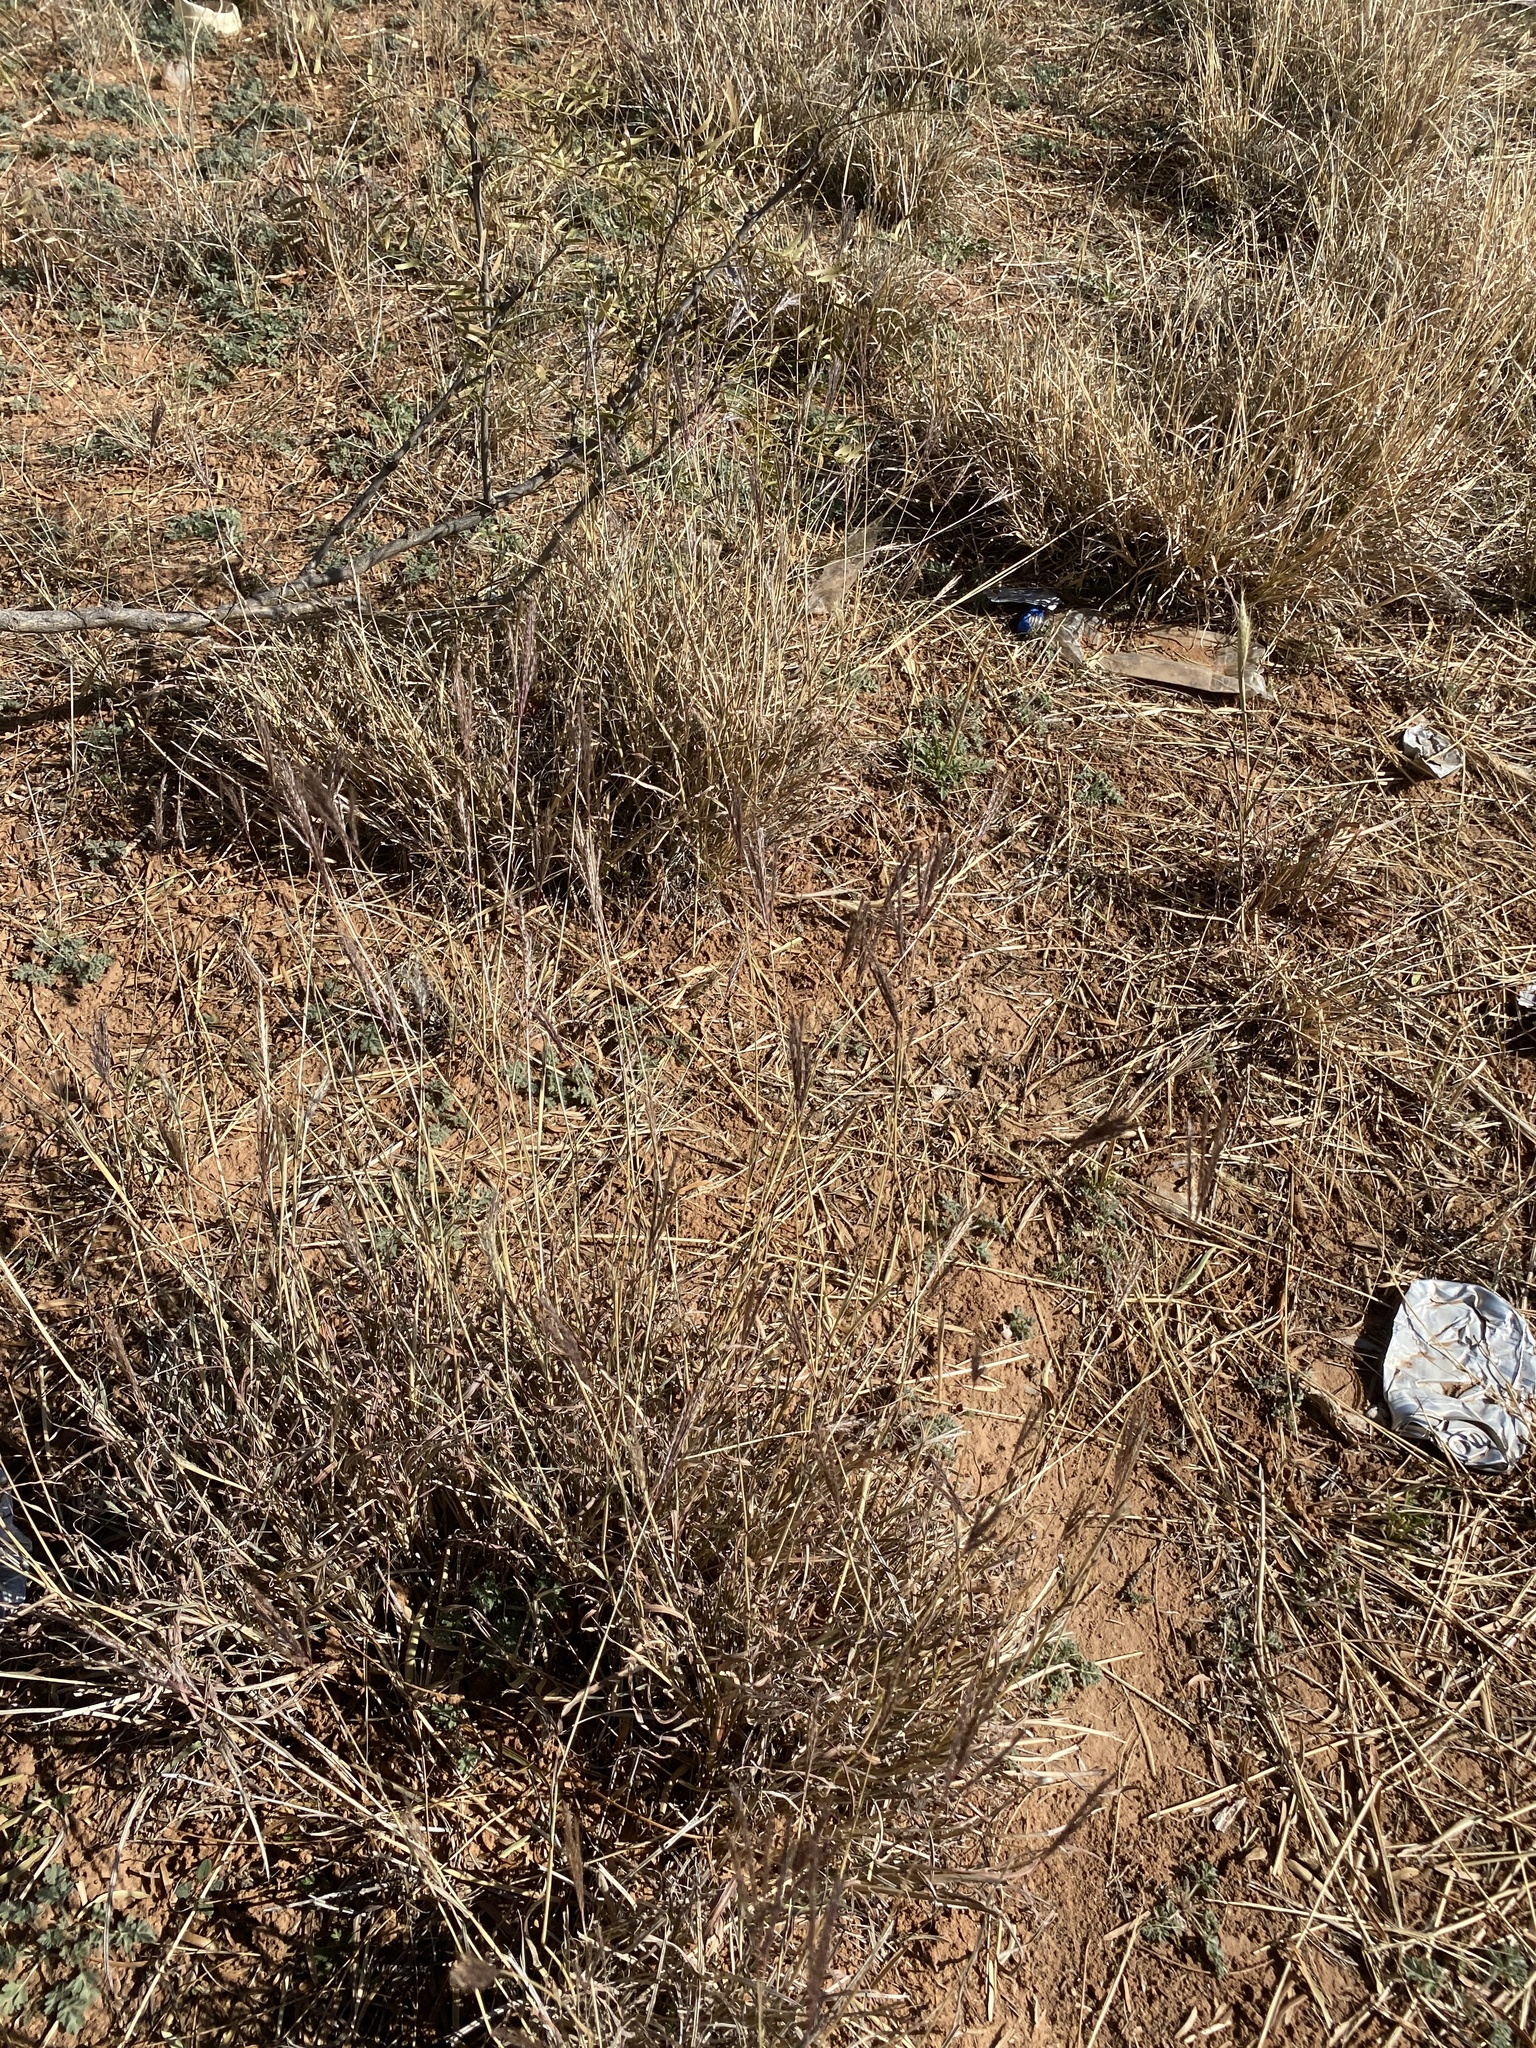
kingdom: Plantae
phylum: Tracheophyta
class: Liliopsida
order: Poales
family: Poaceae
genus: Bothriochloa
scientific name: Bothriochloa ischaemum
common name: Yellow bluestem
